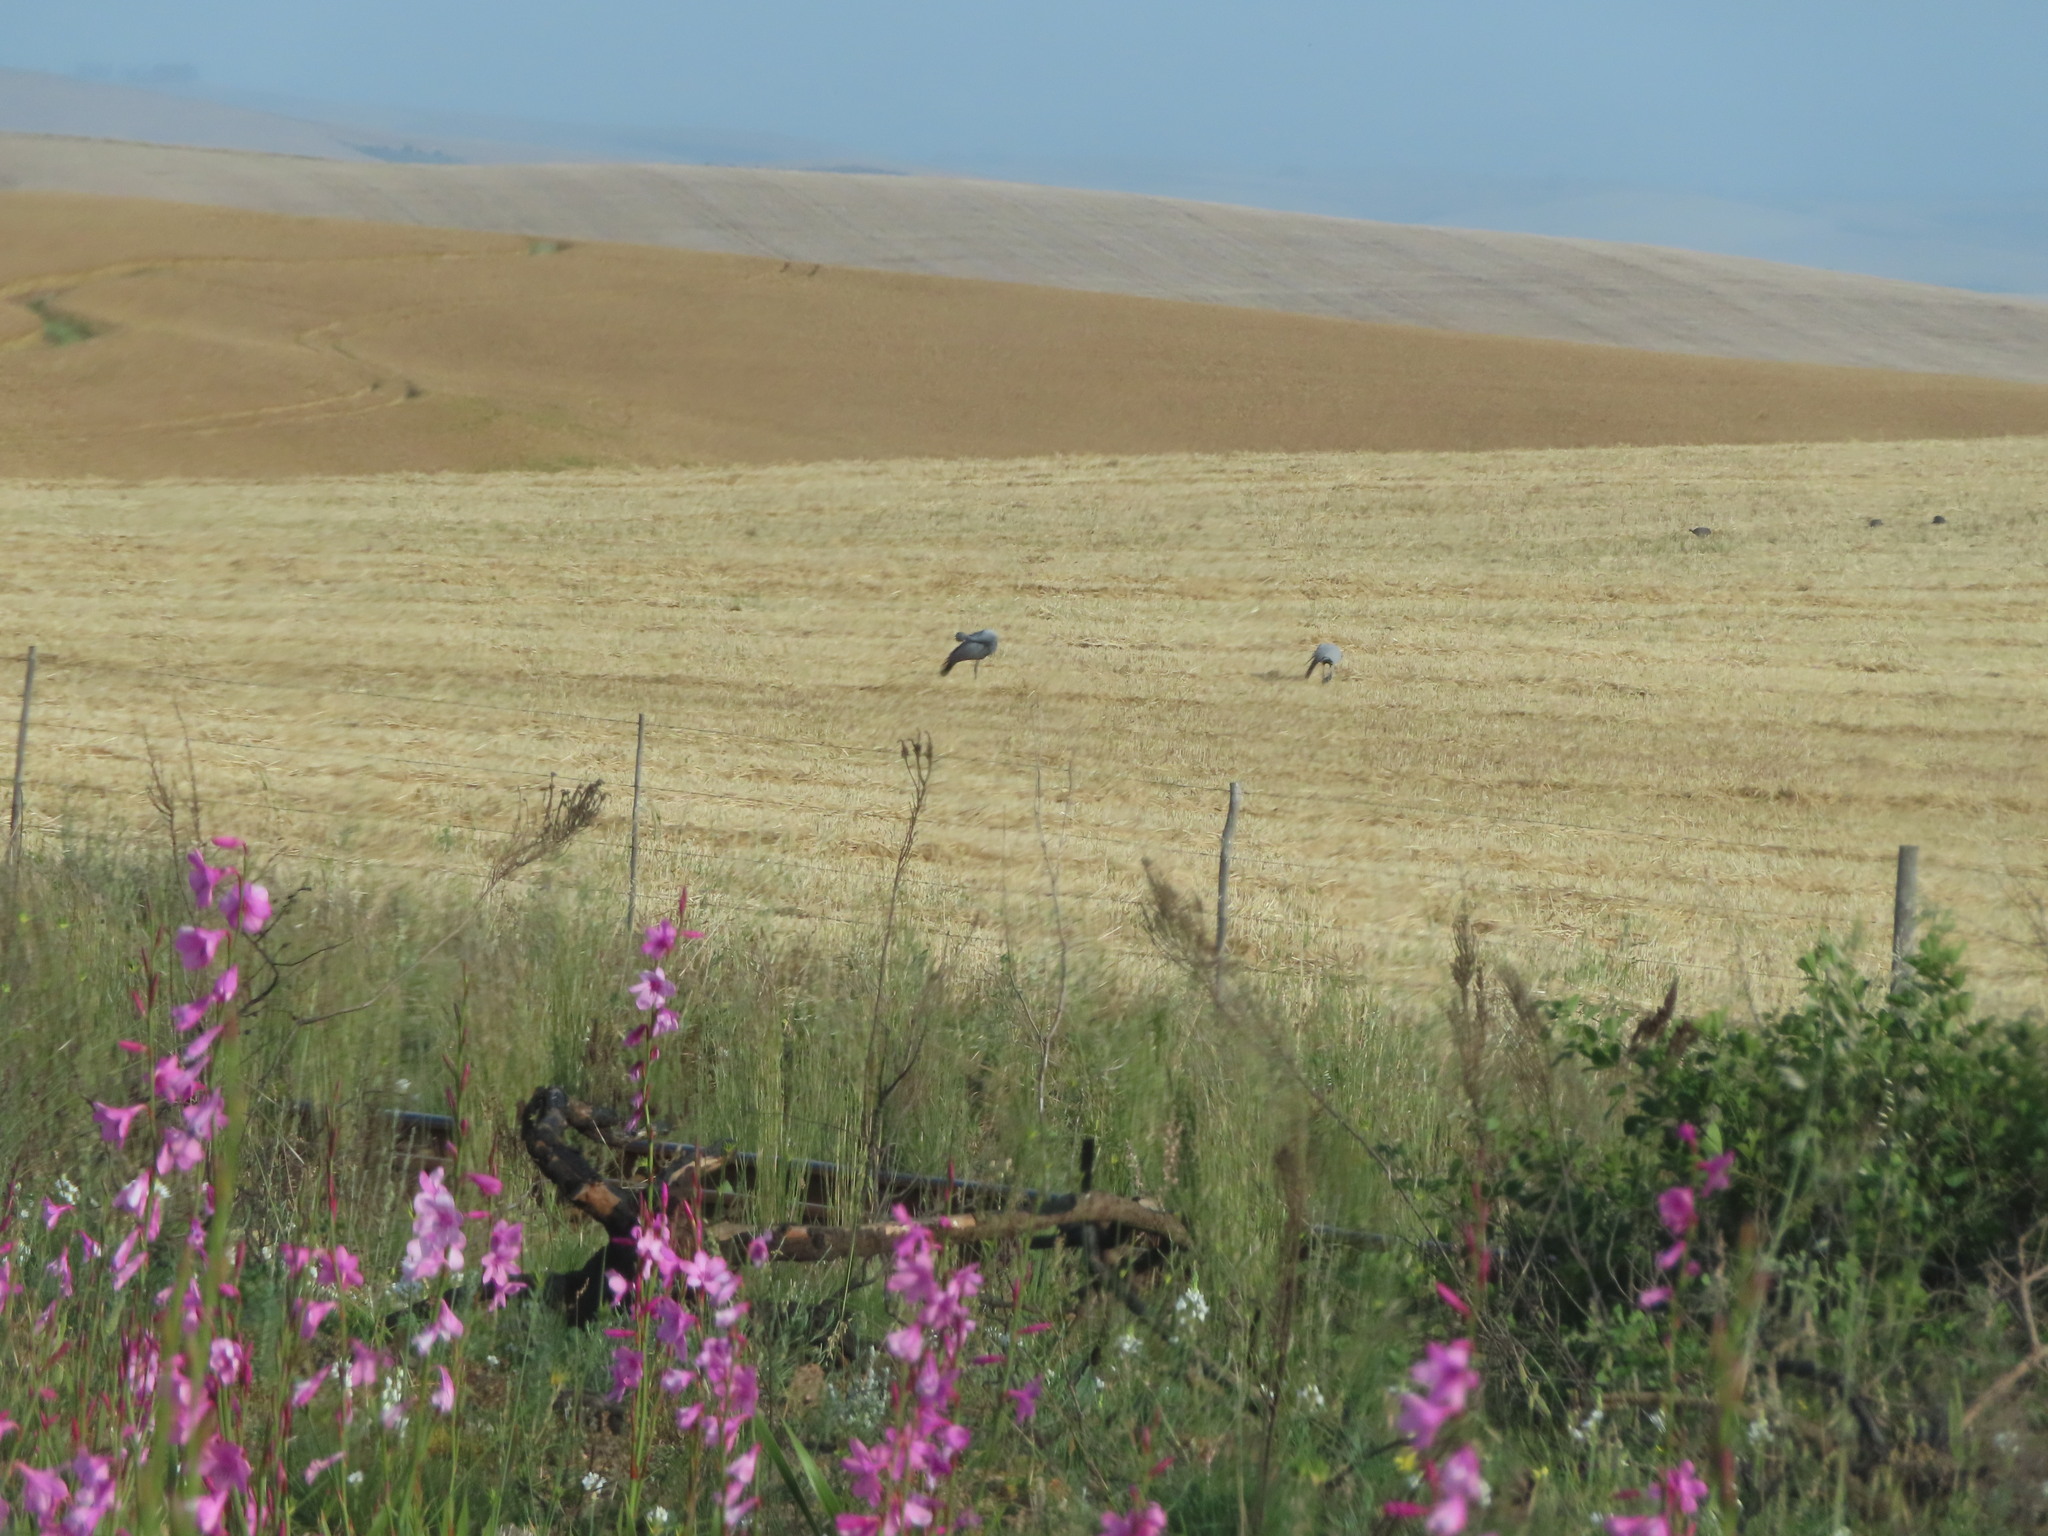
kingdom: Animalia
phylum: Chordata
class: Aves
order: Gruiformes
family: Gruidae
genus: Anthropoides
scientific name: Anthropoides paradiseus
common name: Blue crane
